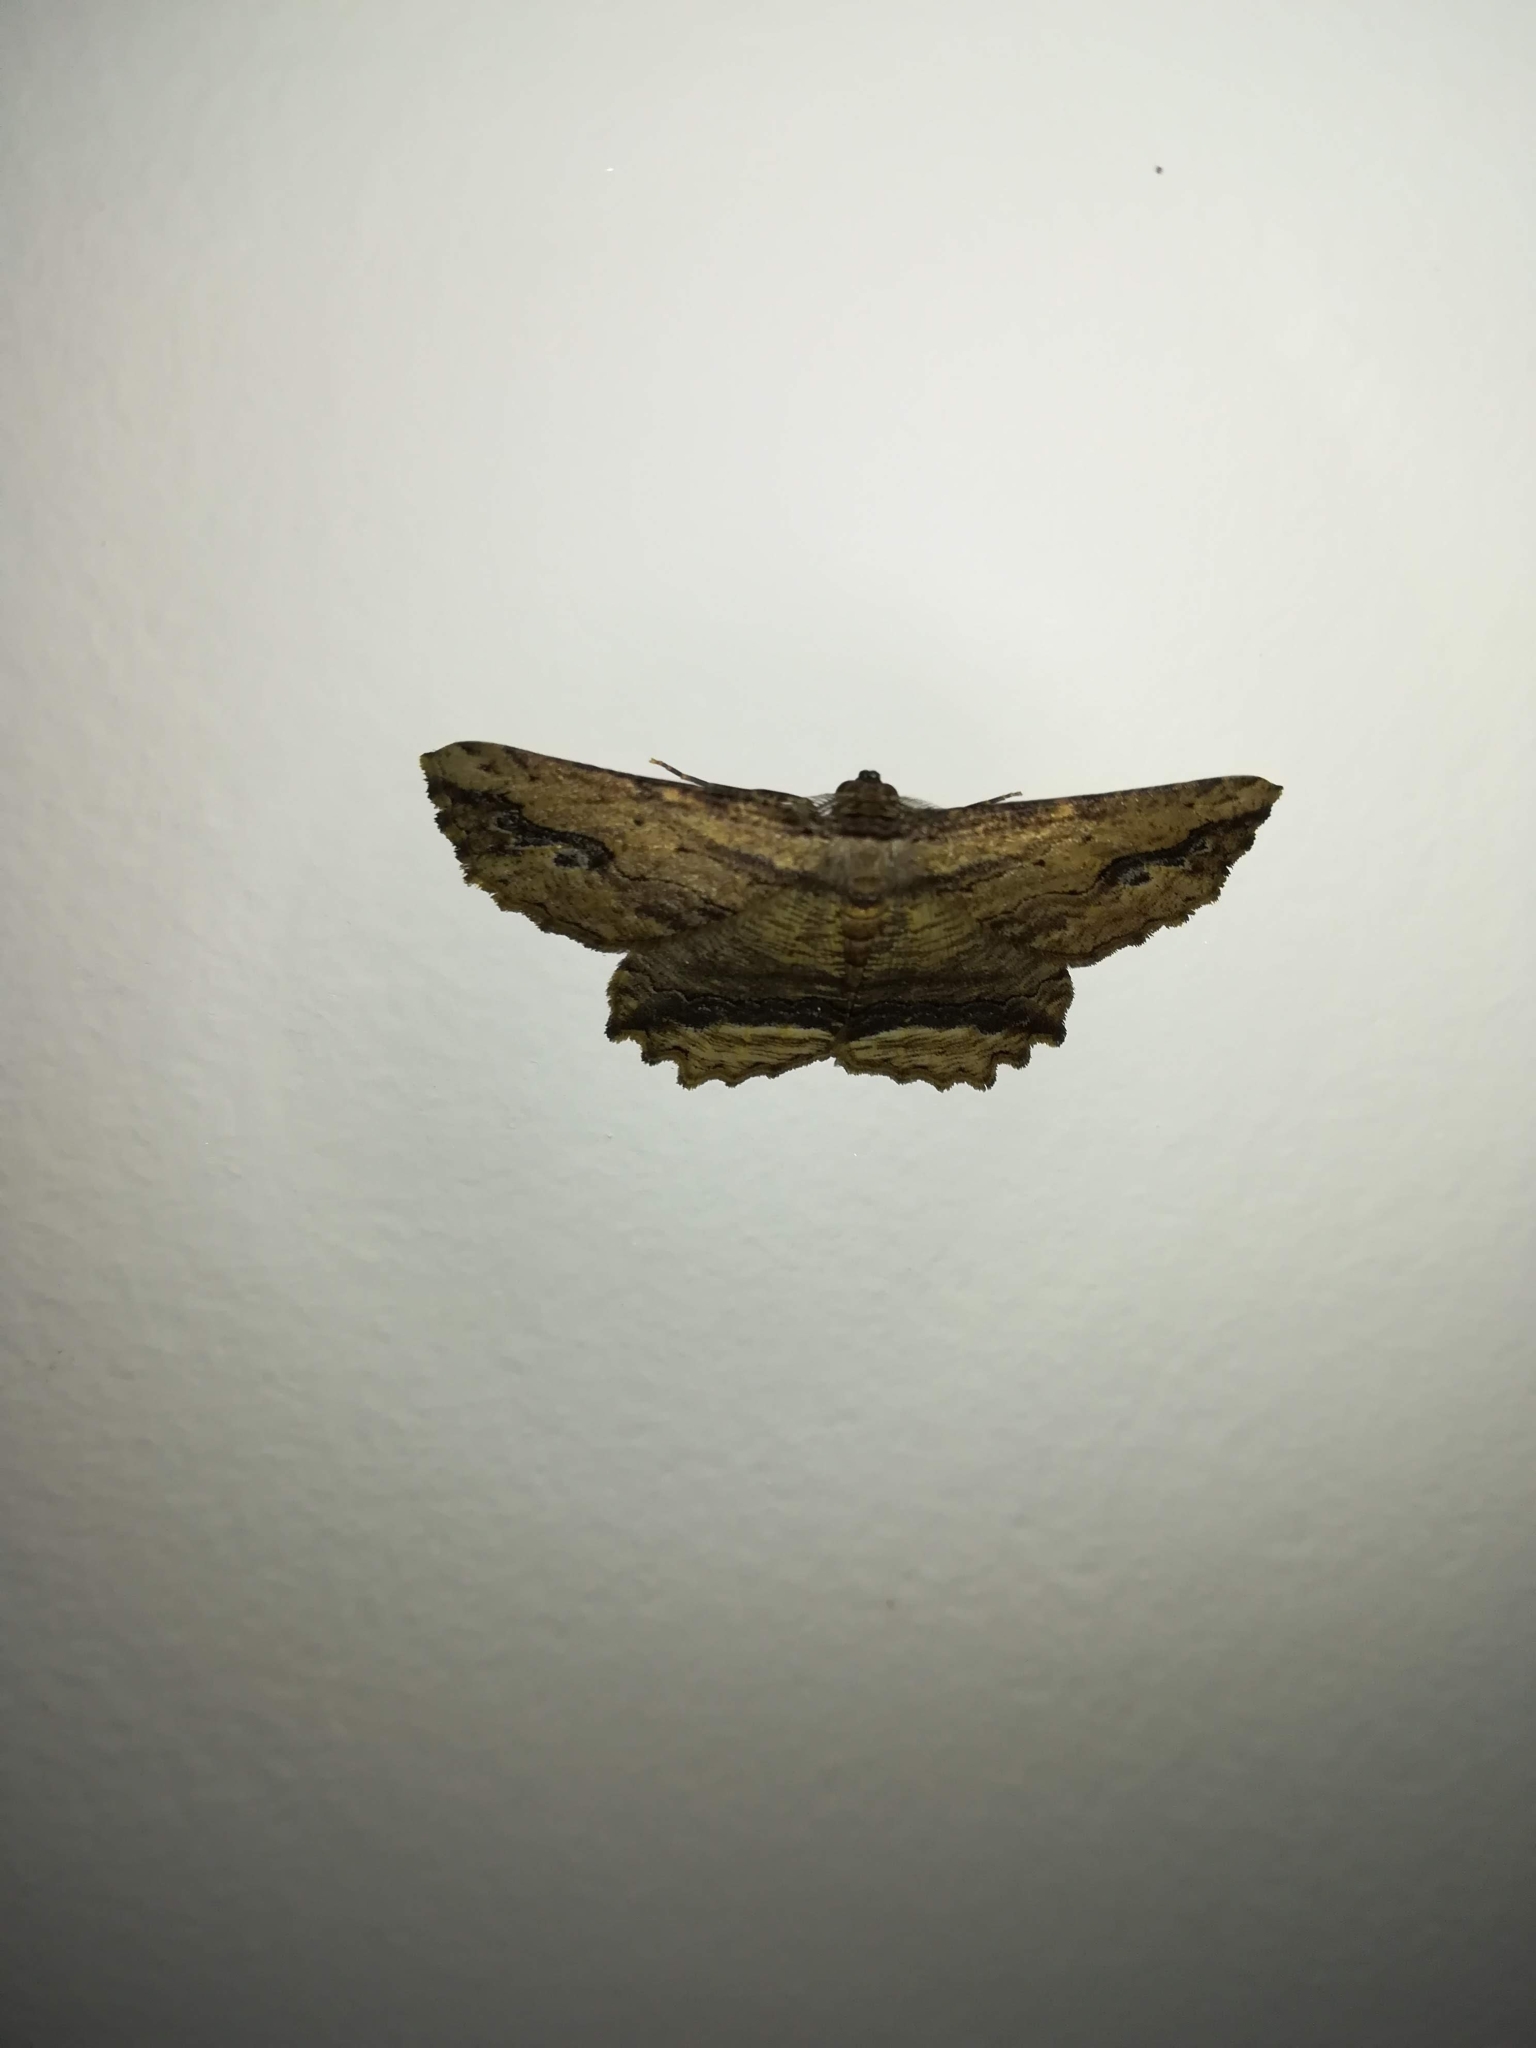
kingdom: Animalia
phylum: Arthropoda
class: Insecta
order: Lepidoptera
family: Geometridae
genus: Menophra
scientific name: Menophra abruptaria
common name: Waved umber
